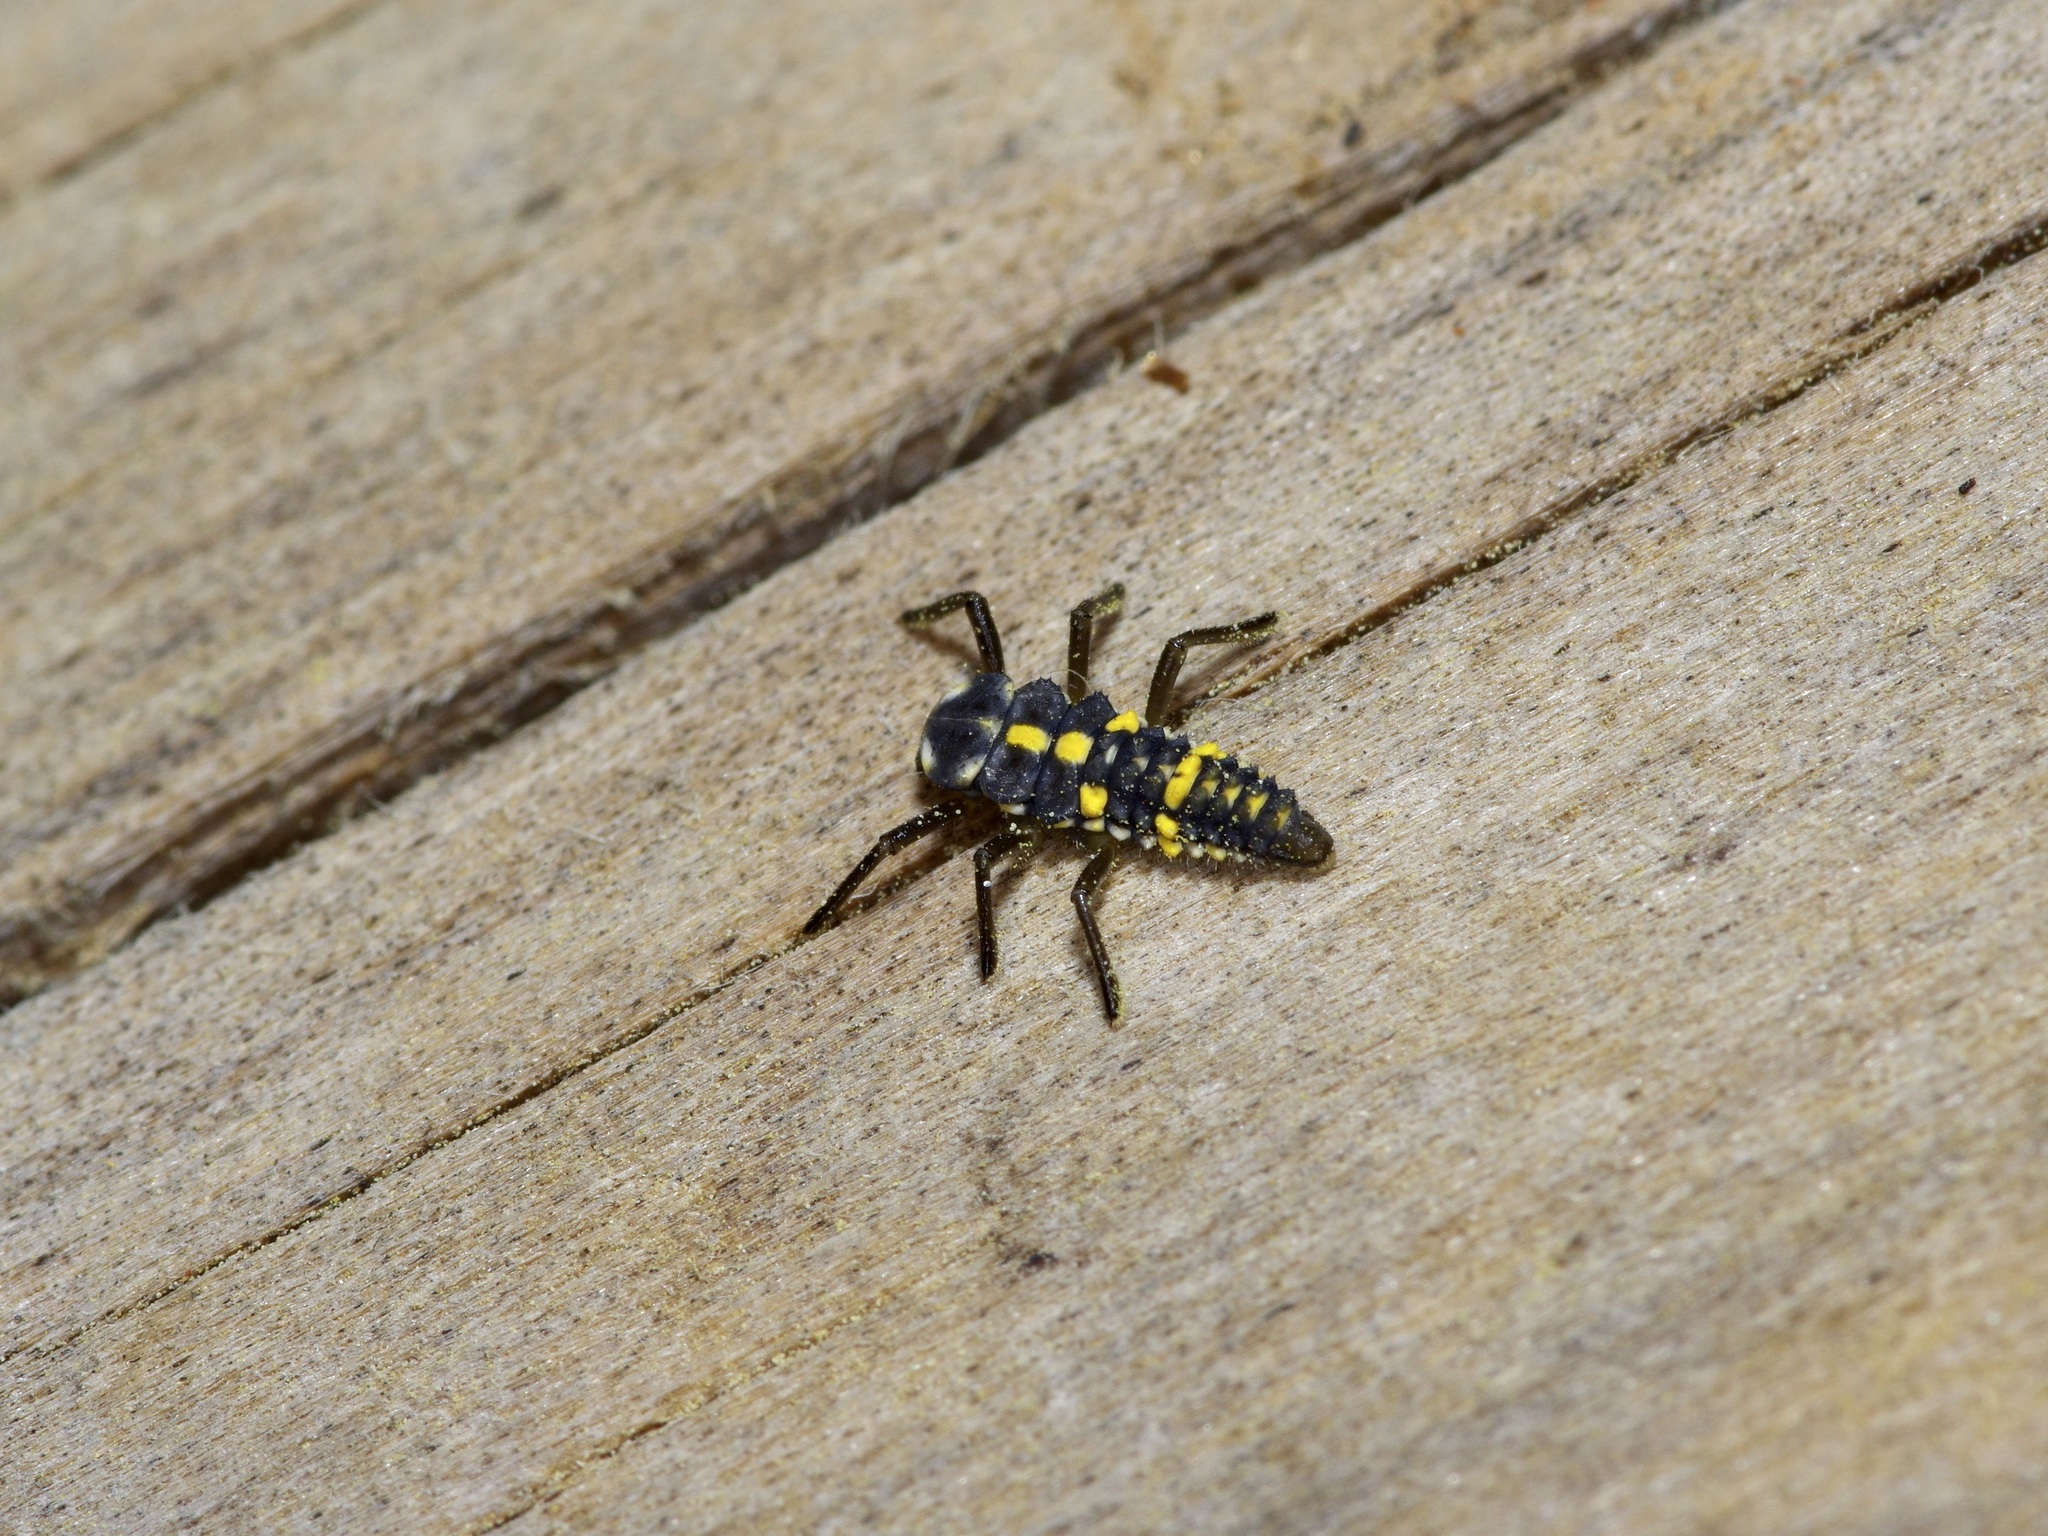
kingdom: Animalia
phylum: Arthropoda
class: Insecta
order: Coleoptera
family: Coccinellidae
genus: Olla
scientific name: Olla v-nigrum
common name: Ashy gray lady beetle
